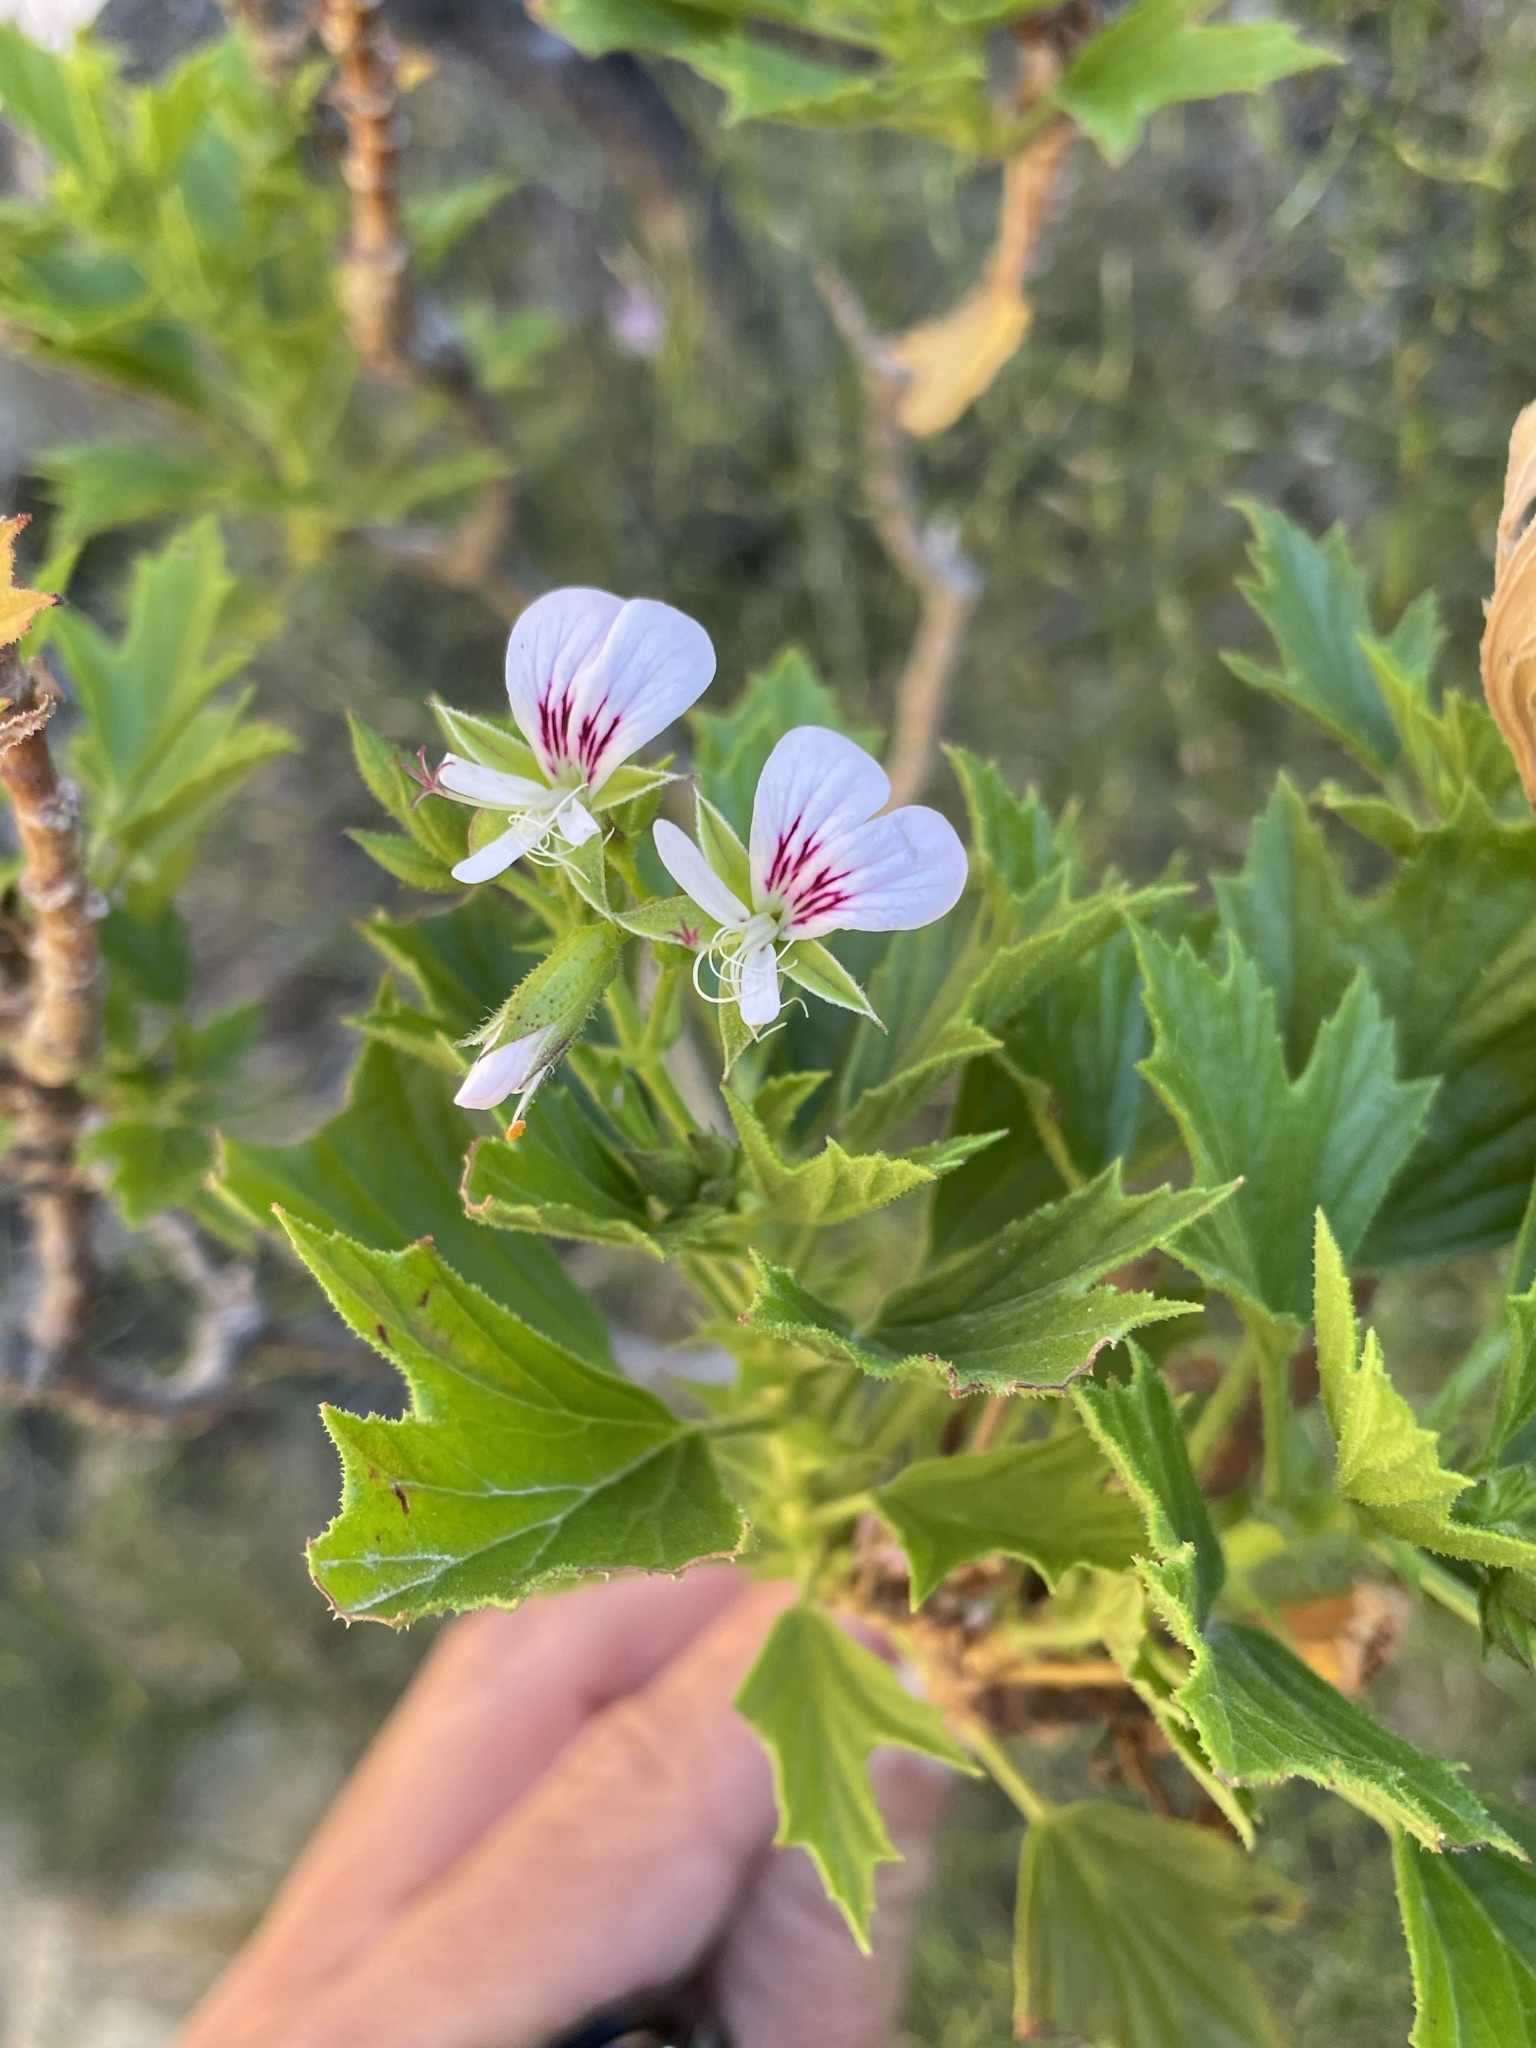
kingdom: Plantae
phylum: Tracheophyta
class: Magnoliopsida
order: Geraniales
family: Geraniaceae
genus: Pelargonium
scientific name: Pelargonium ribifolium
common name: Currant-leaf pelargonium
